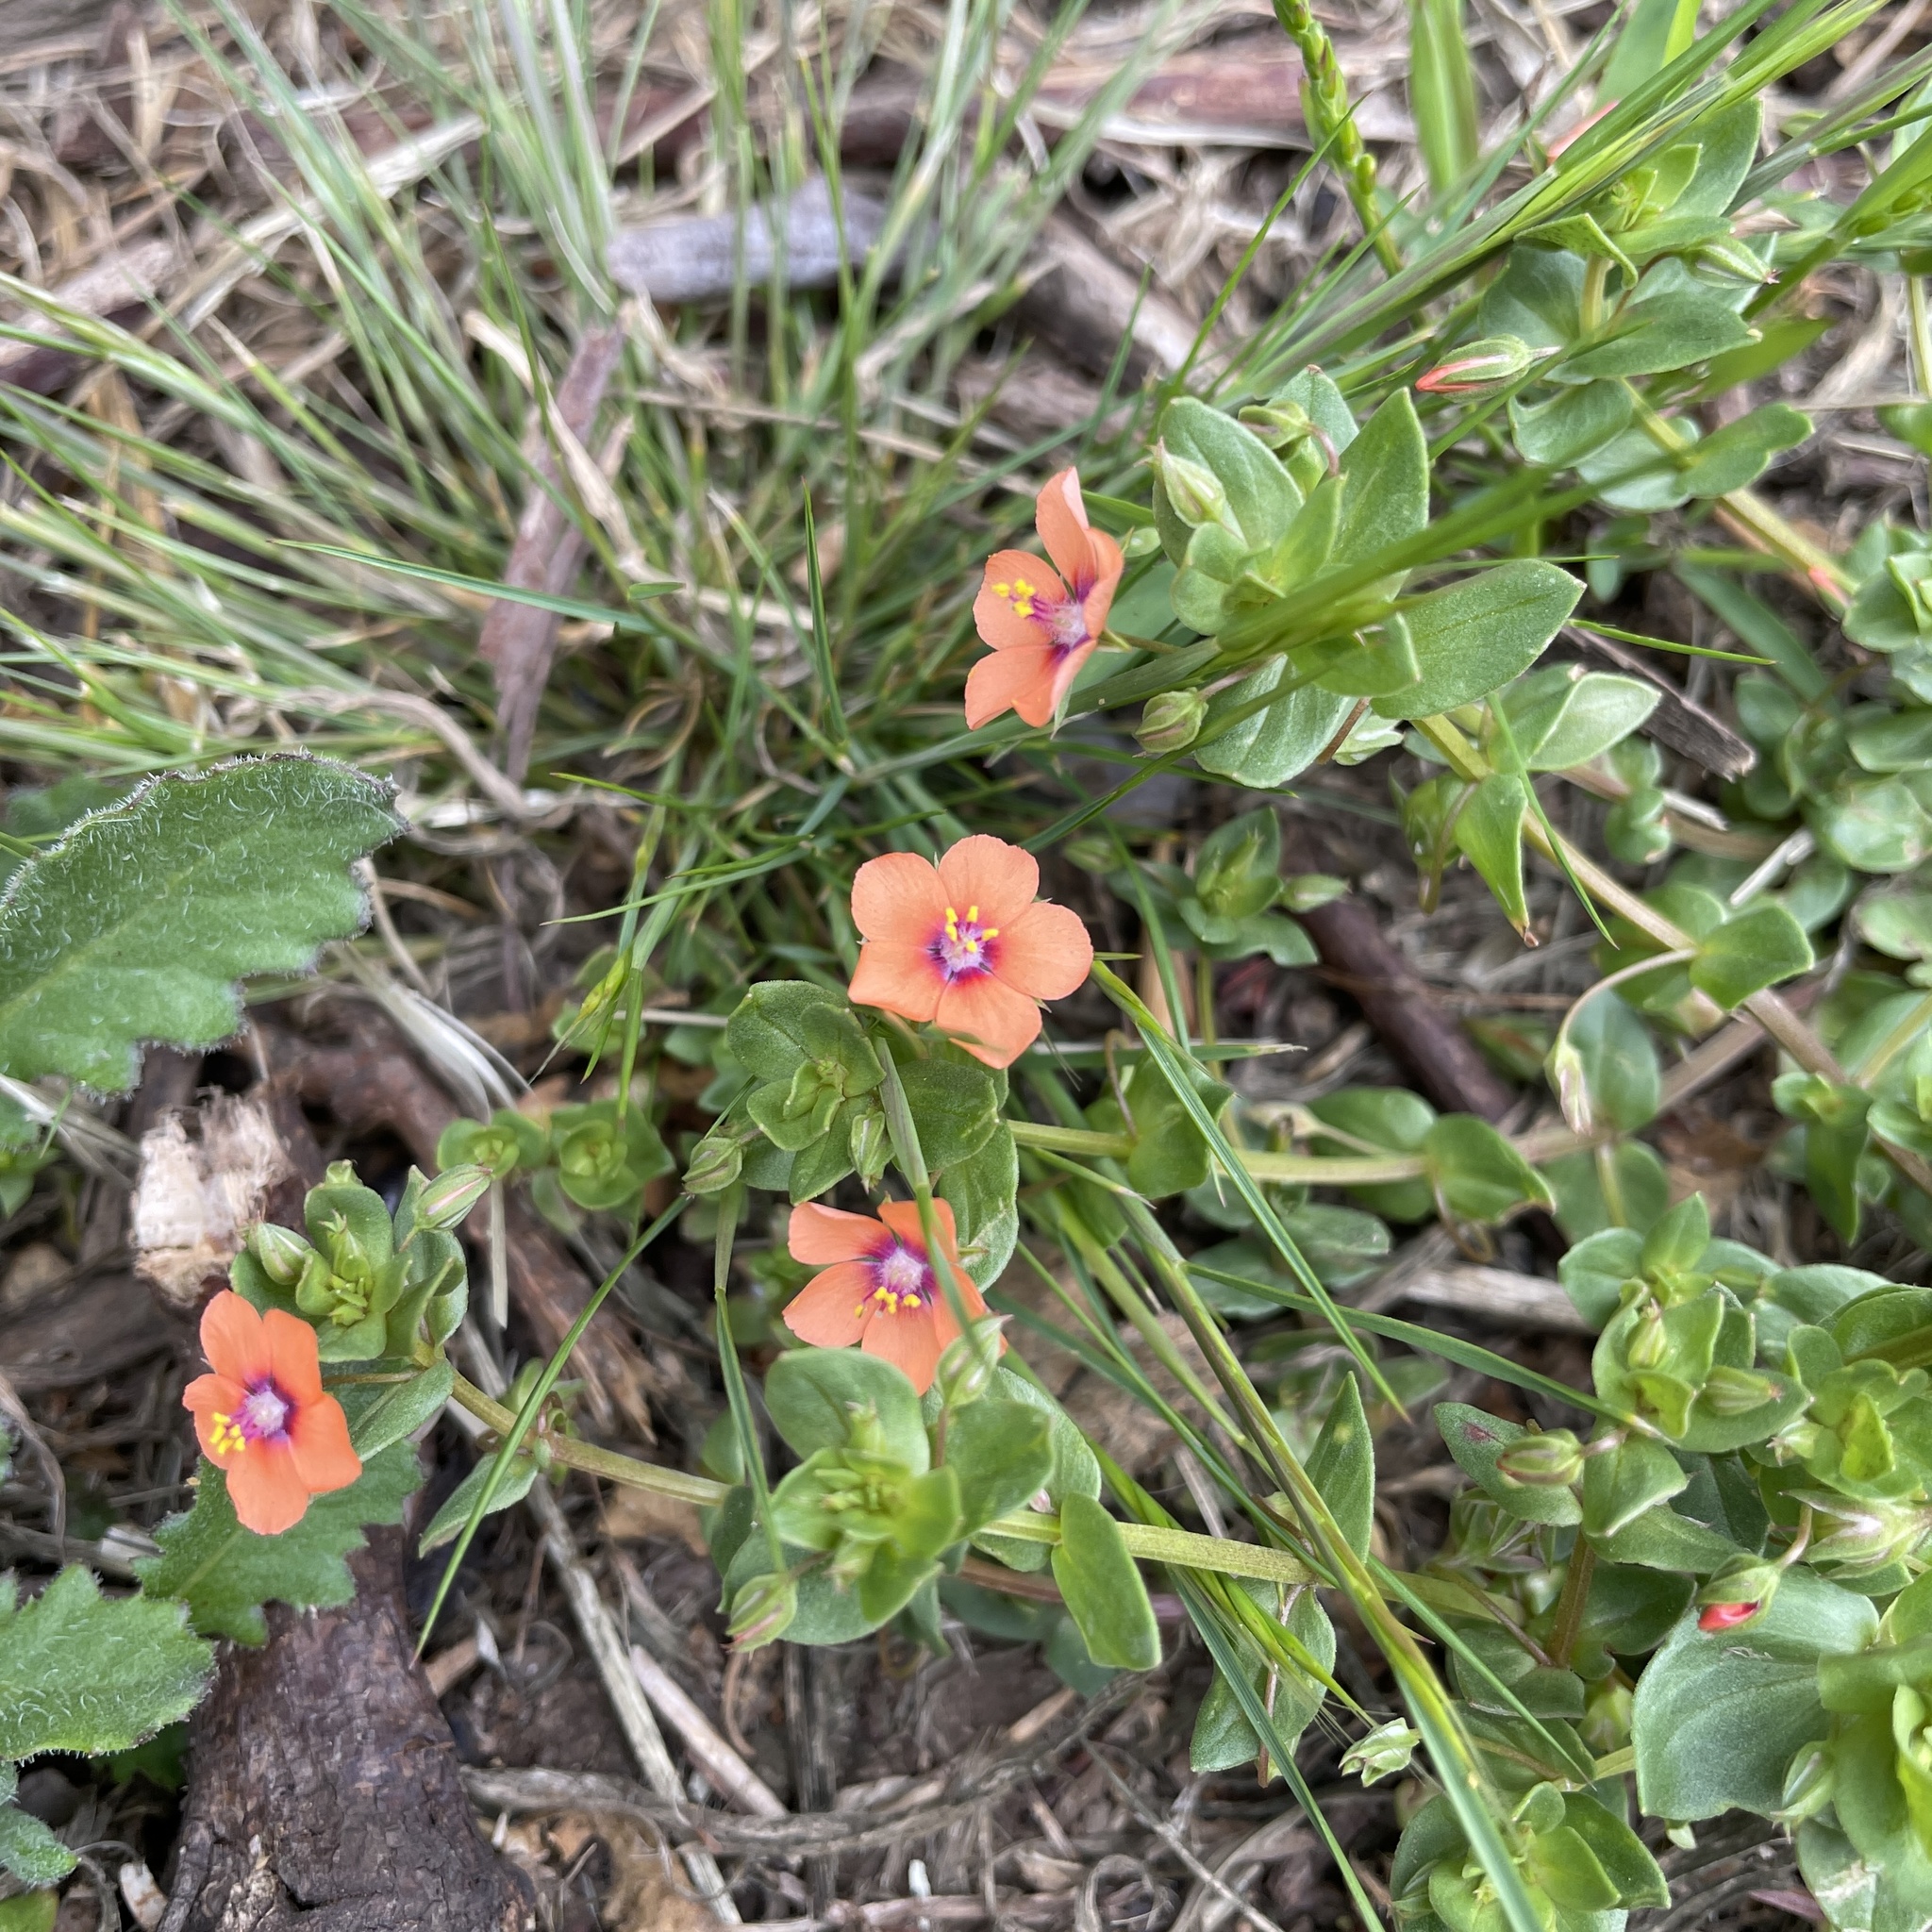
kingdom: Plantae
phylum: Tracheophyta
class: Magnoliopsida
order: Ericales
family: Primulaceae
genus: Lysimachia
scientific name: Lysimachia arvensis
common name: Scarlet pimpernel
